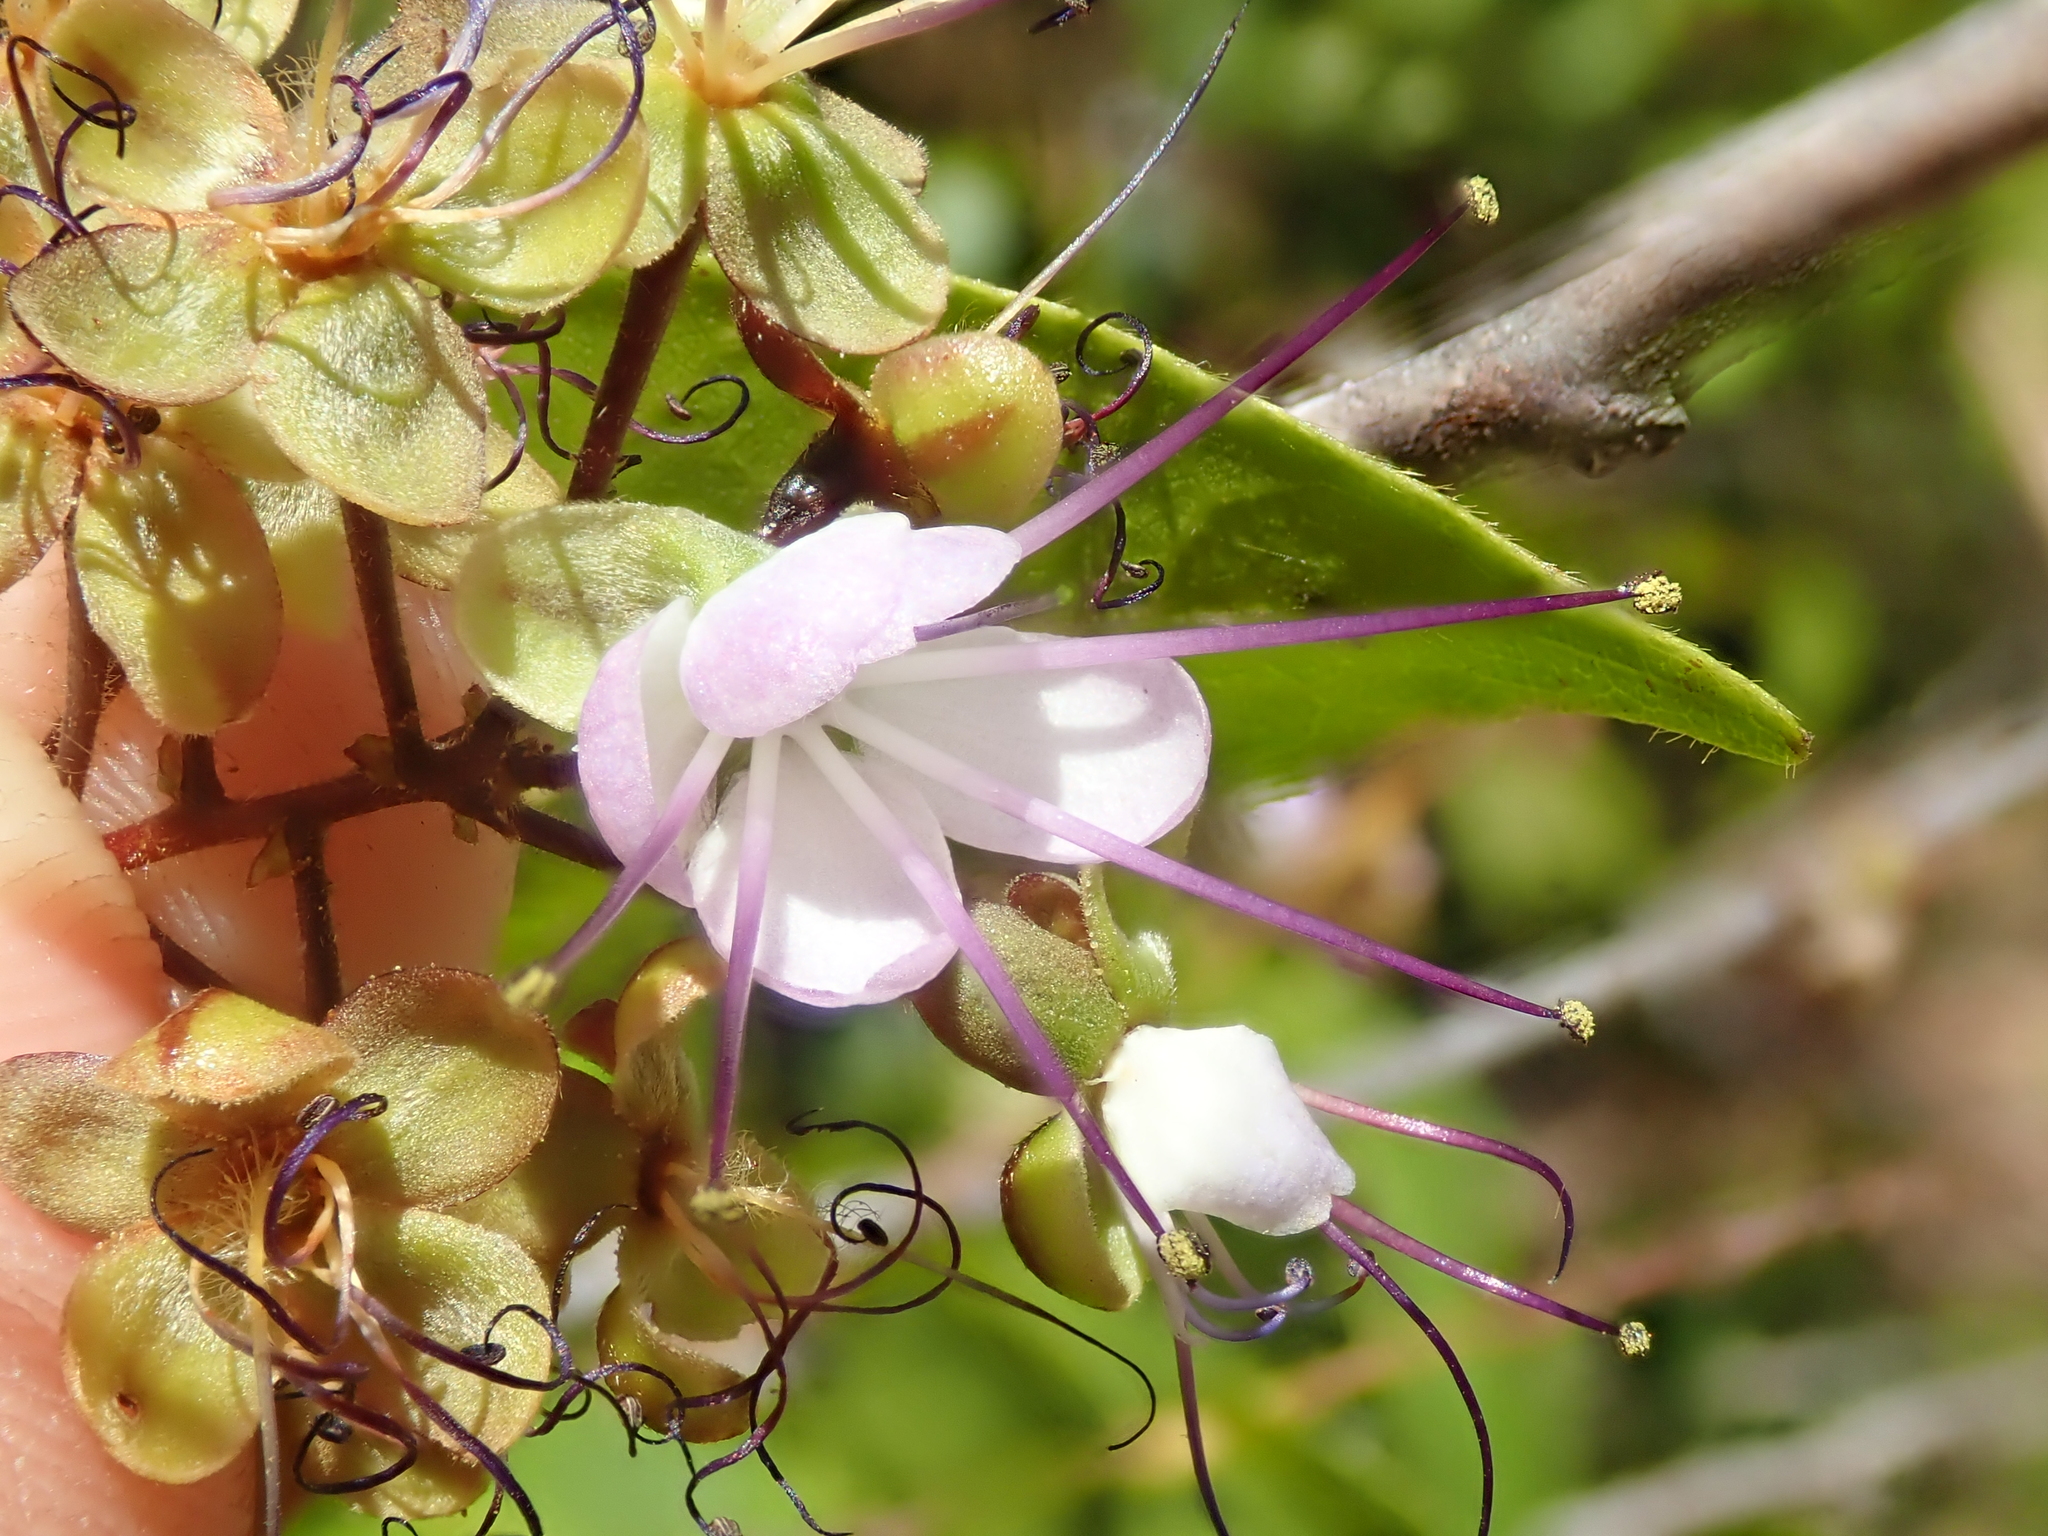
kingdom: Plantae
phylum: Tracheophyta
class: Magnoliopsida
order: Malpighiales
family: Chrysobalanaceae
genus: Hirtella
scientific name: Hirtella gracilipes
